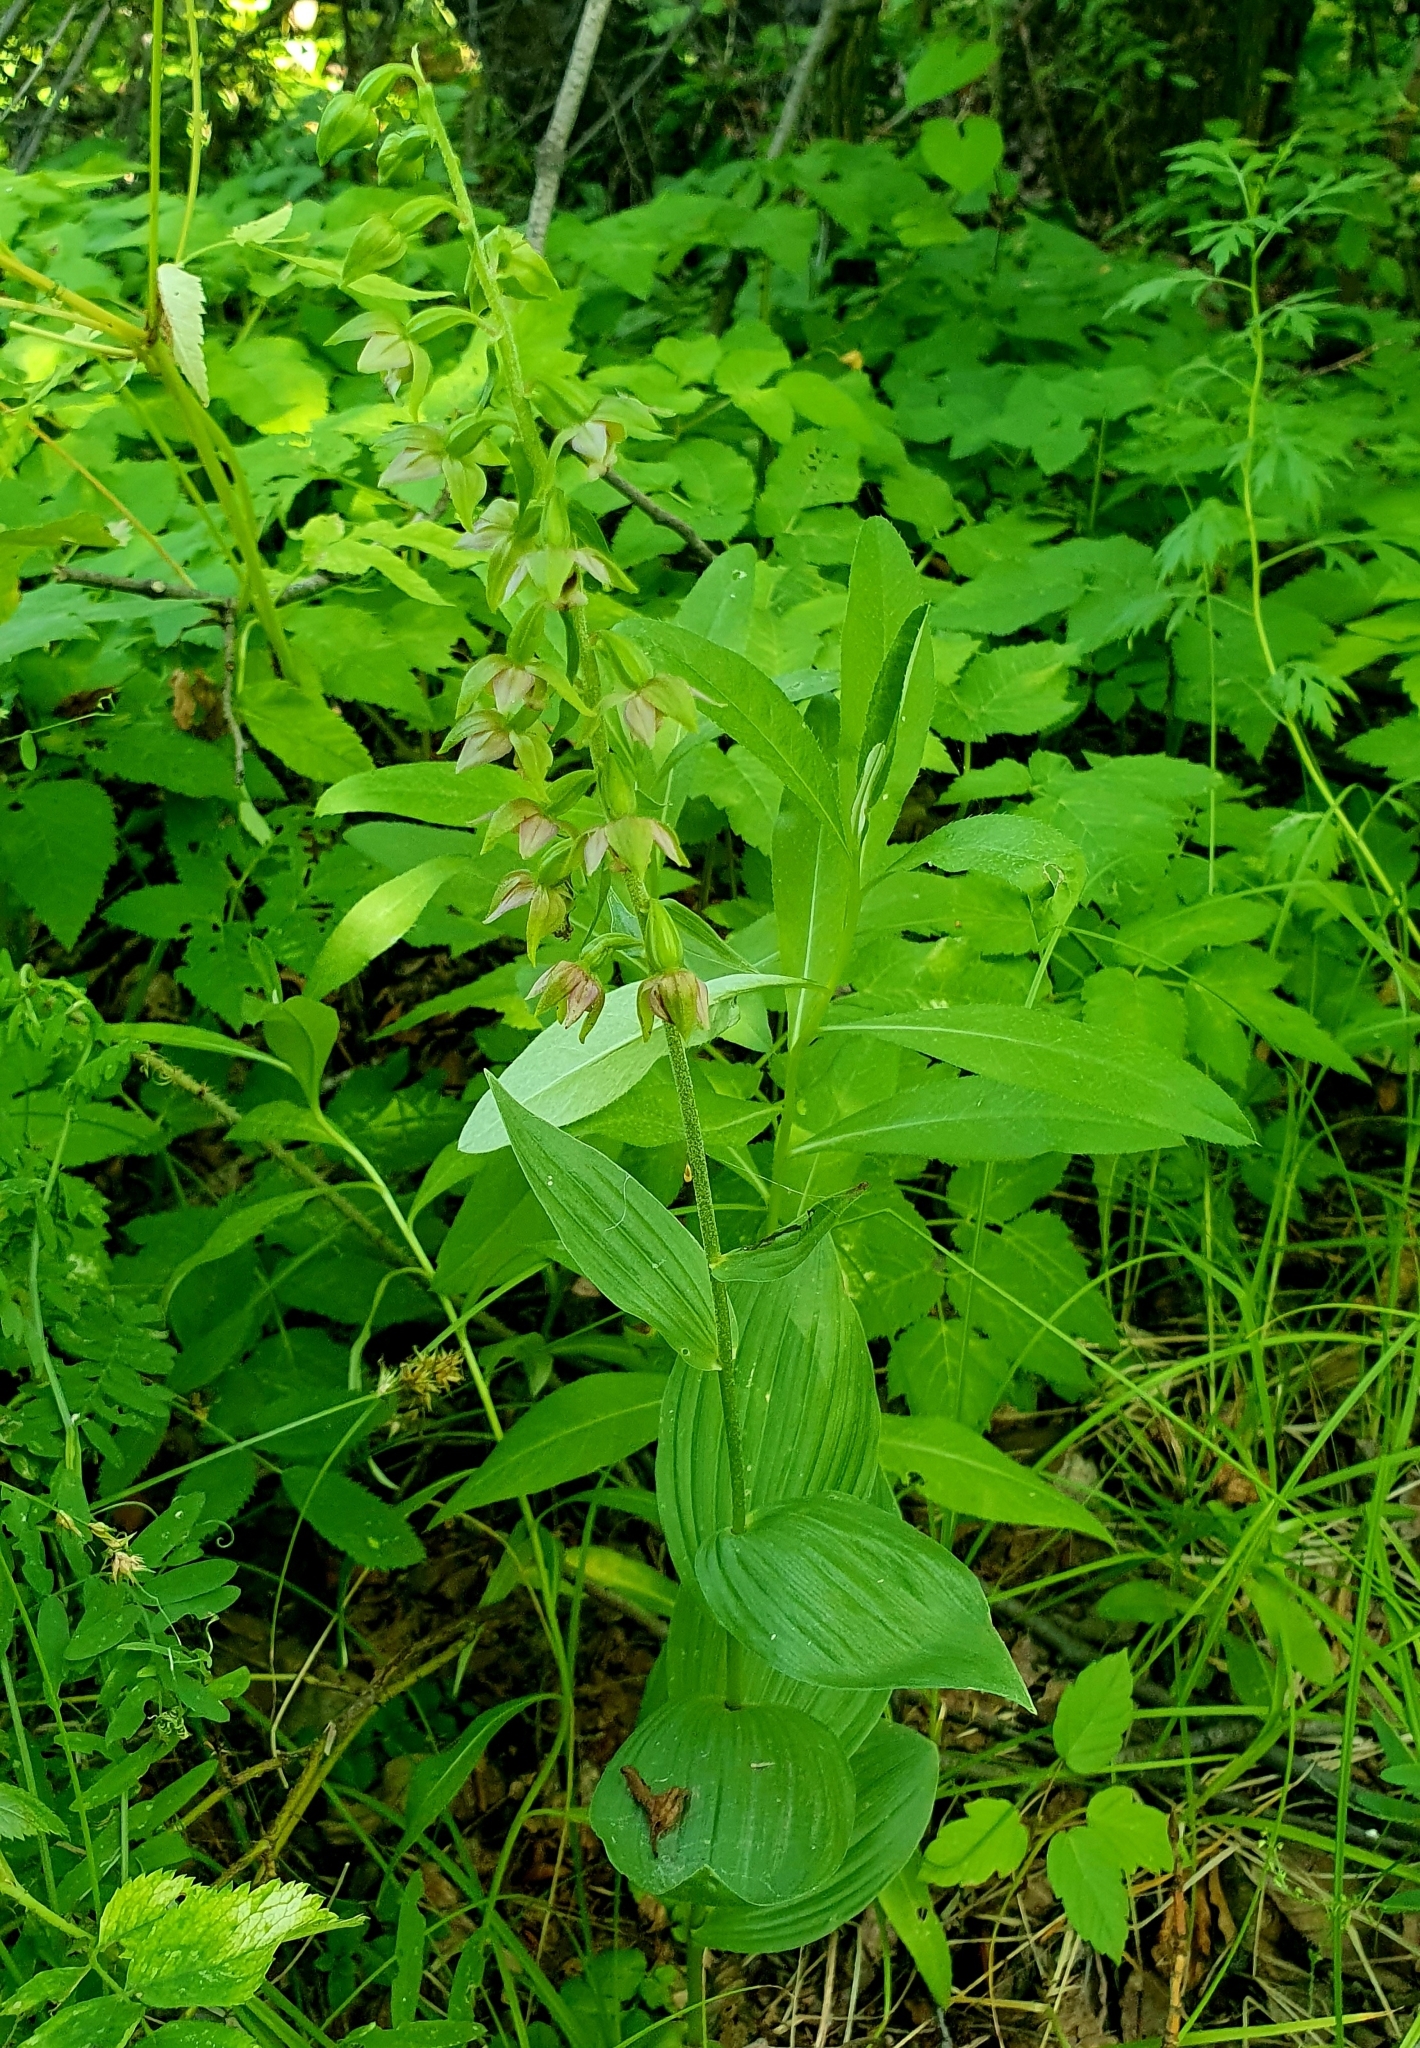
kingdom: Plantae
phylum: Tracheophyta
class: Liliopsida
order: Asparagales
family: Orchidaceae
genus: Epipactis
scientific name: Epipactis helleborine
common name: Broad-leaved helleborine
